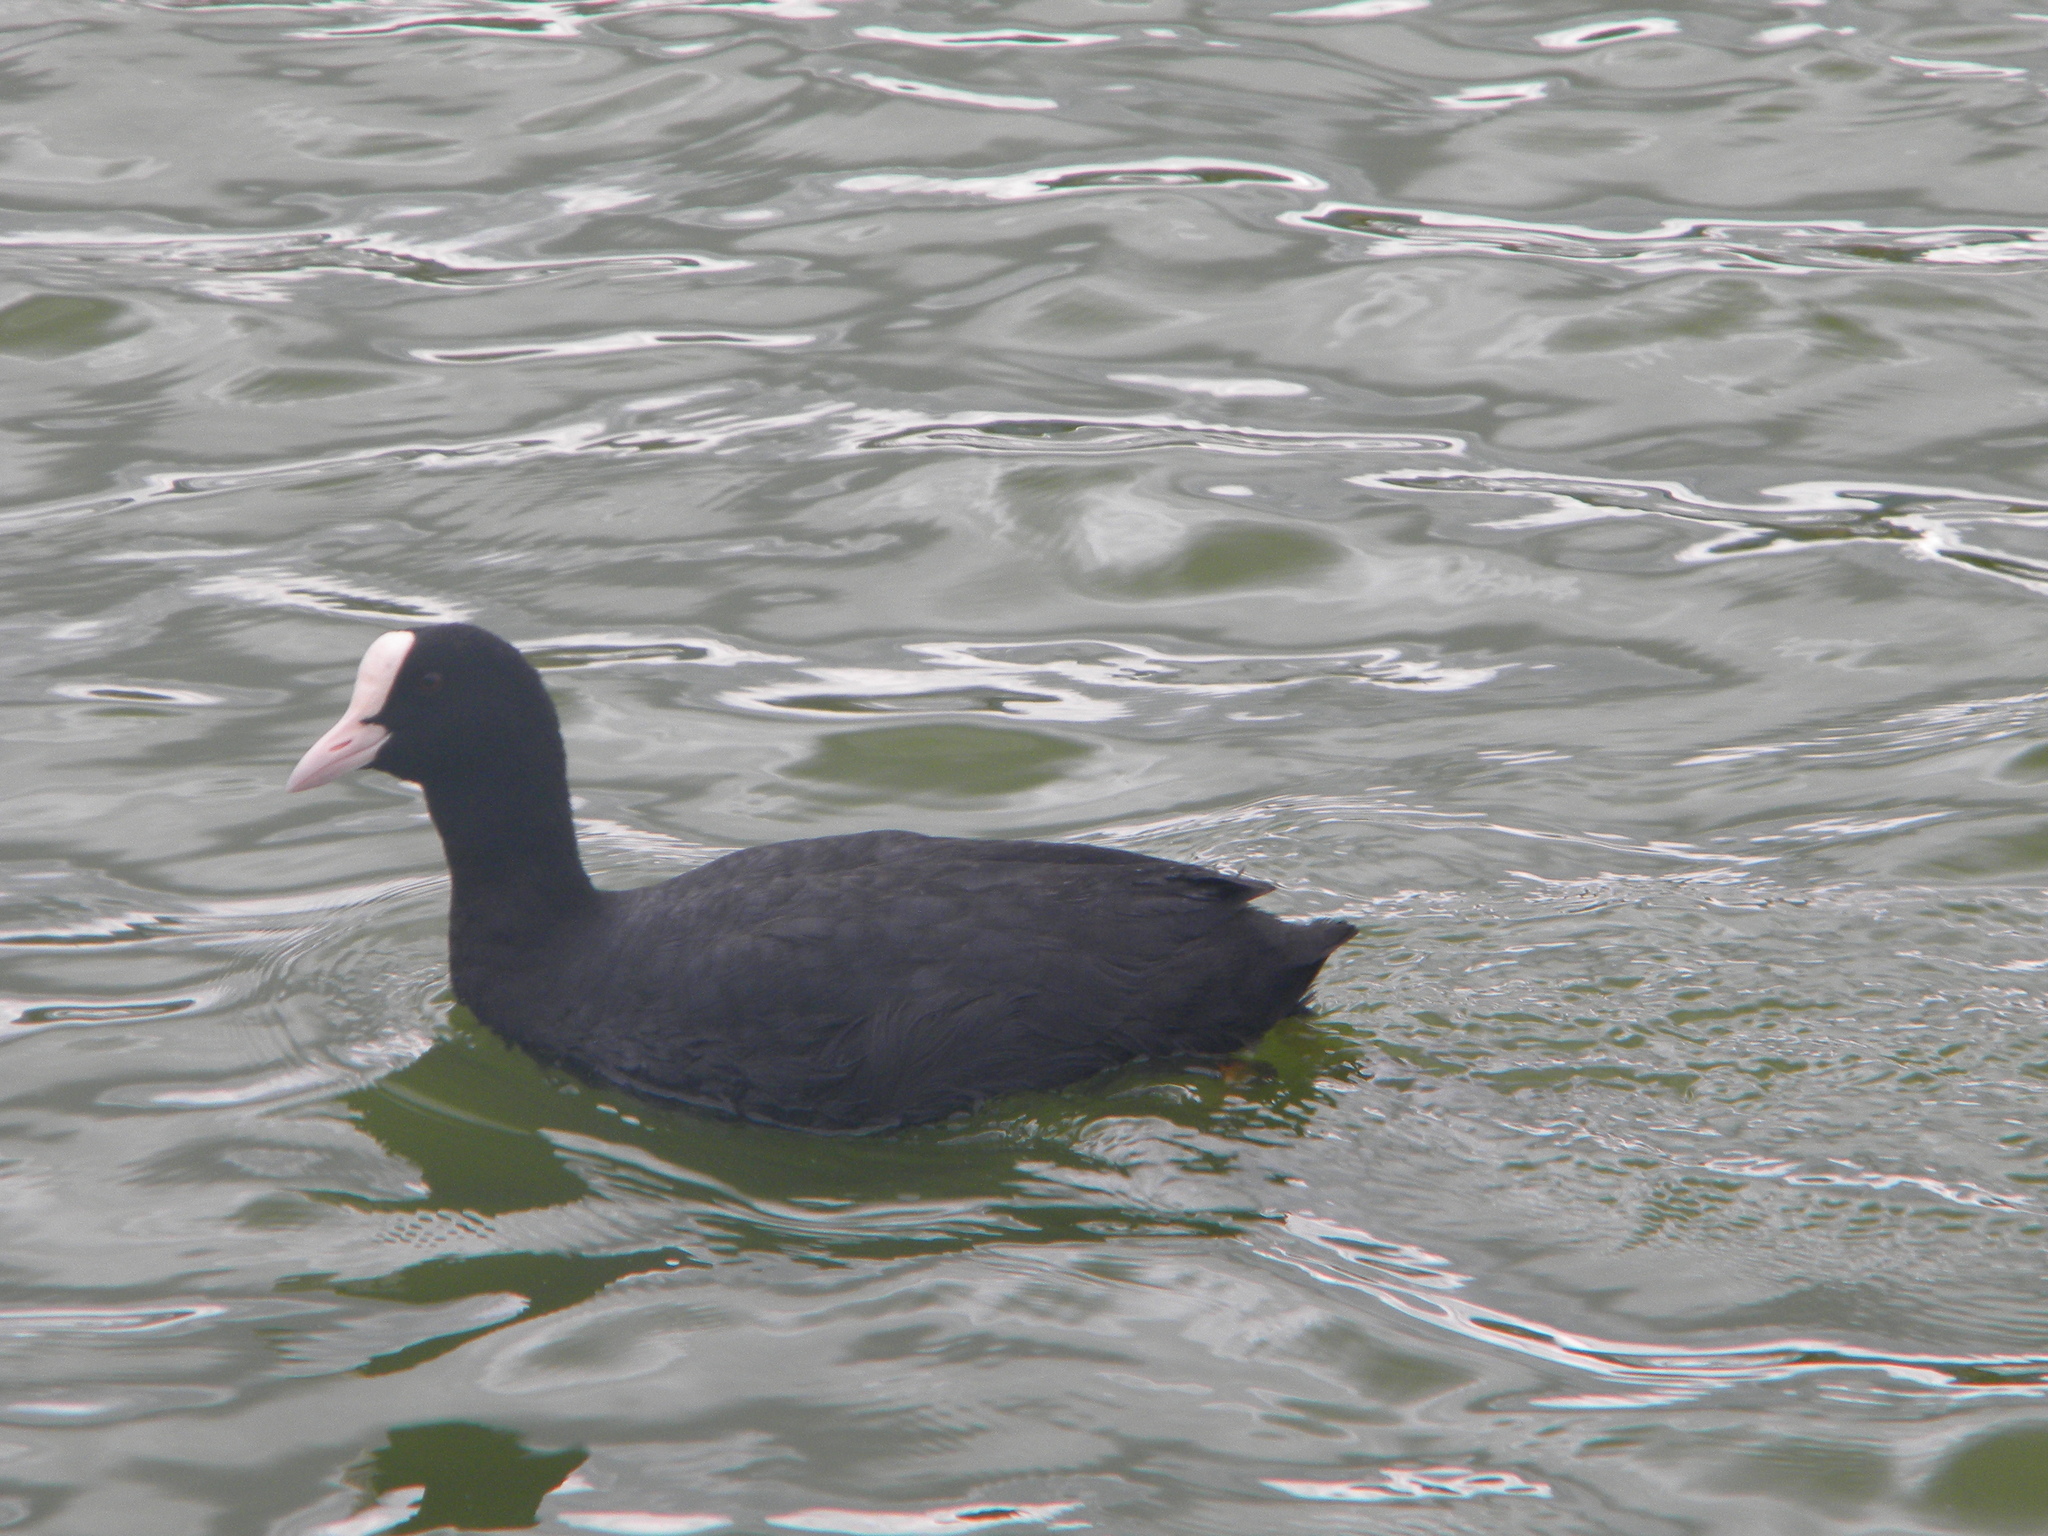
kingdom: Animalia
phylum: Chordata
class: Aves
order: Gruiformes
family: Rallidae
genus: Fulica
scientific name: Fulica atra
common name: Eurasian coot
